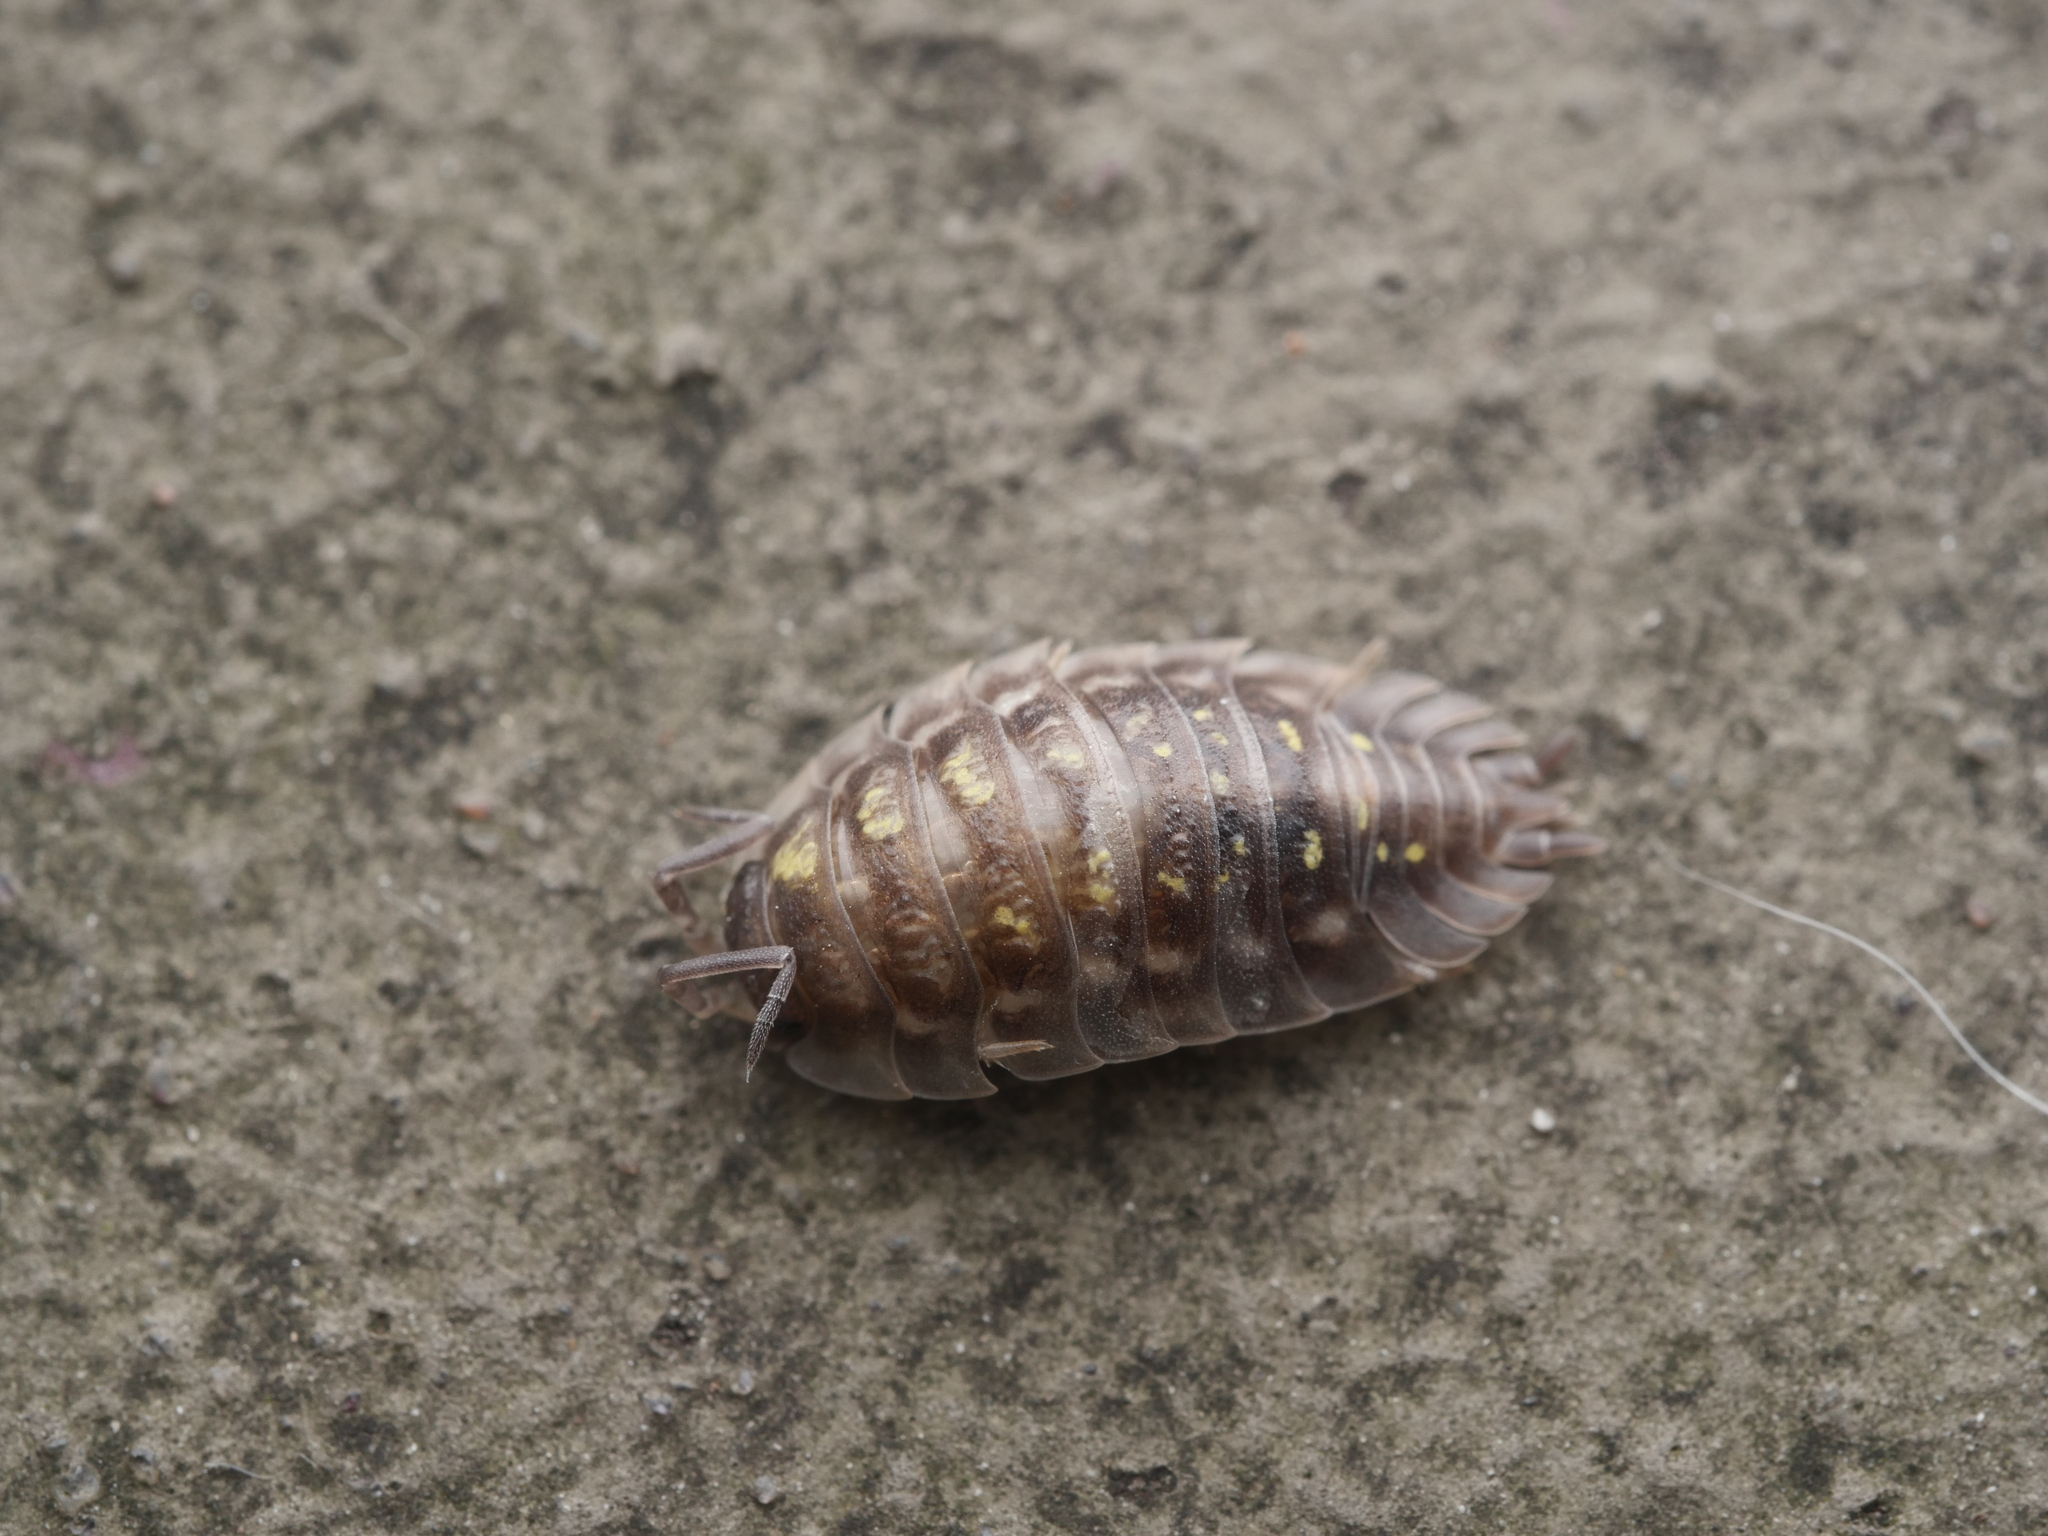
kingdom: Animalia
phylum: Arthropoda
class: Malacostraca
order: Isopoda
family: Oniscidae
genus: Oniscus
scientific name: Oniscus asellus
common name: Common shiny woodlouse
